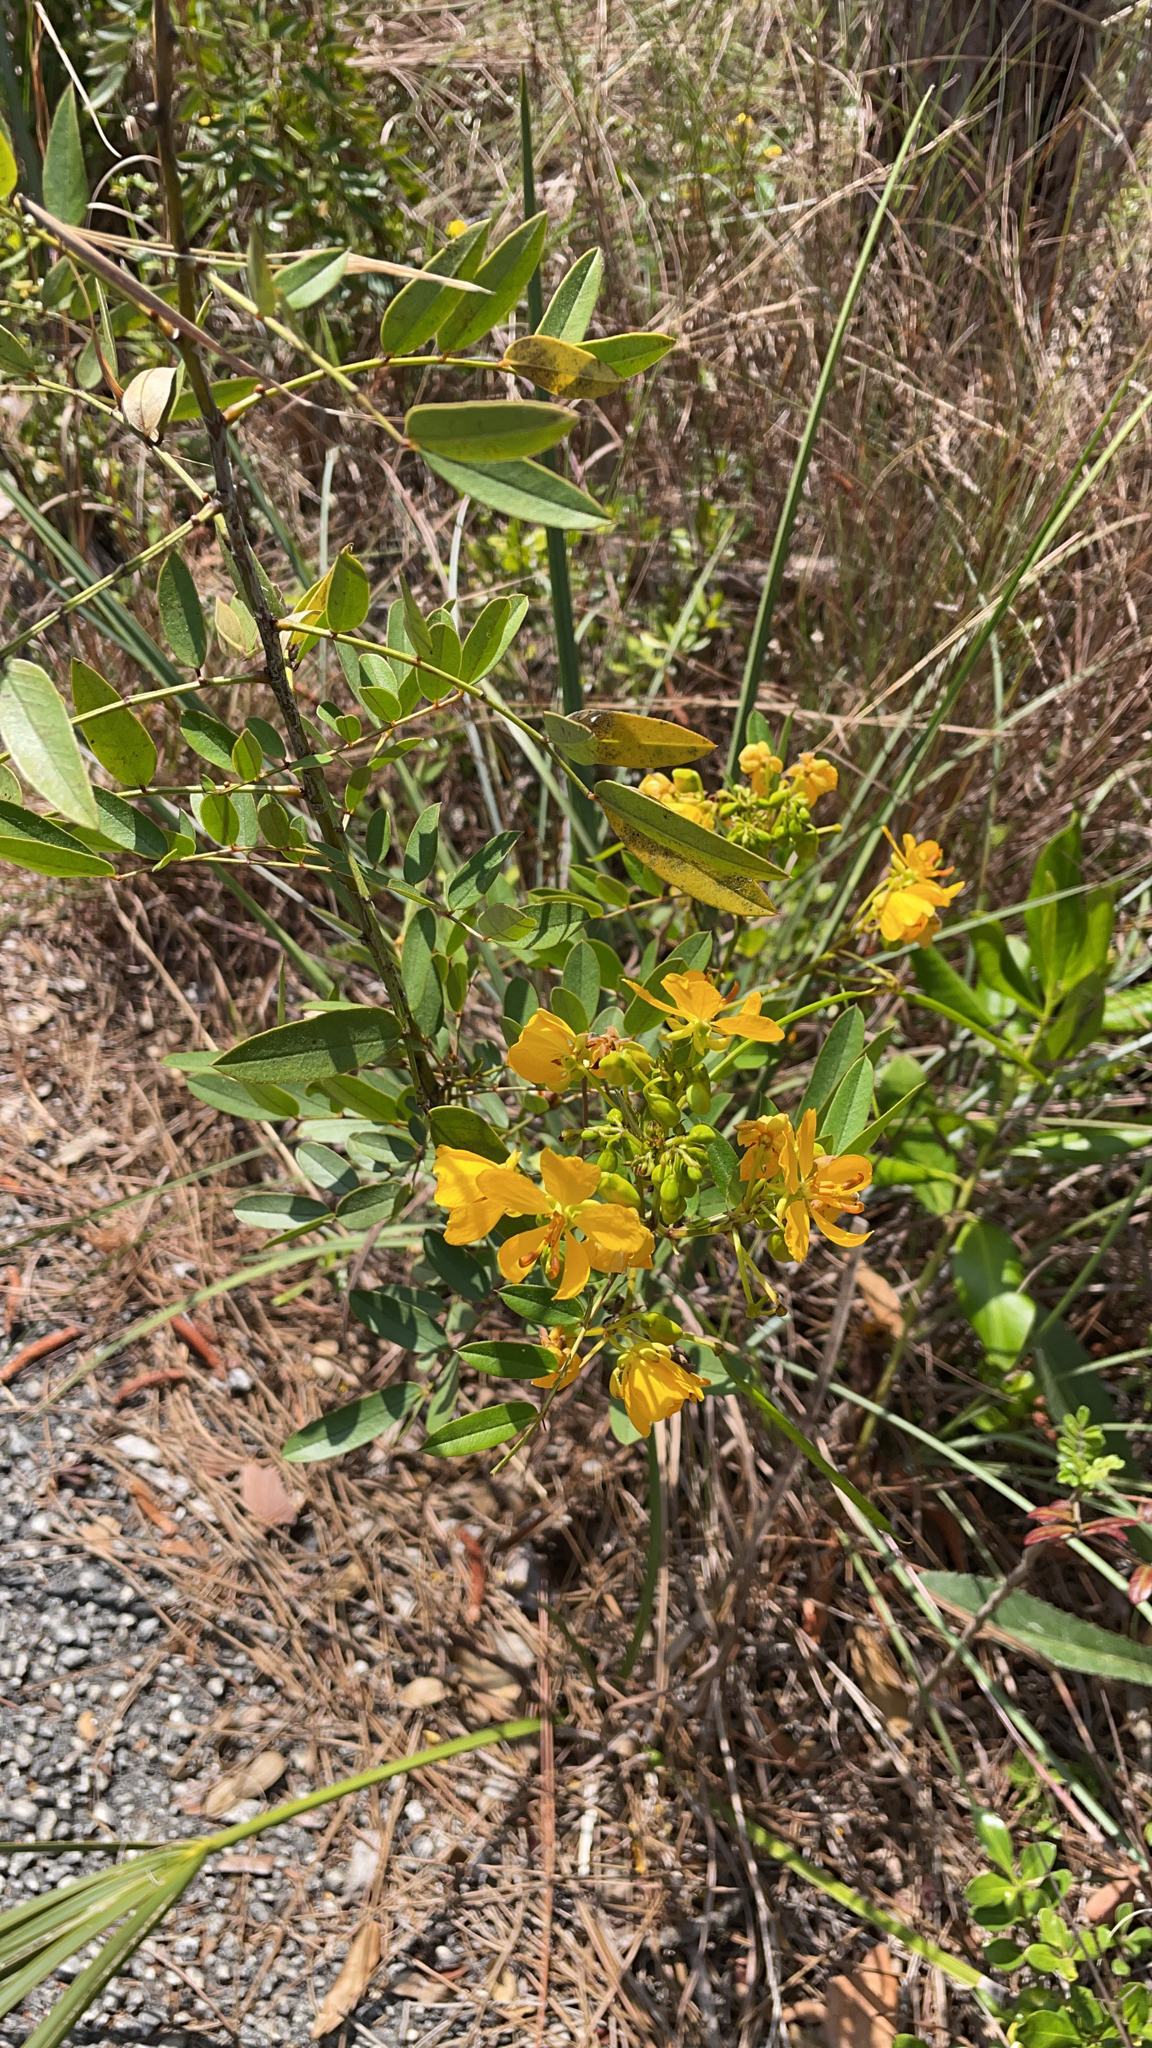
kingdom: Plantae
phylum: Tracheophyta
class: Magnoliopsida
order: Fabales
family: Fabaceae
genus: Senna
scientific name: Senna chapmanii
